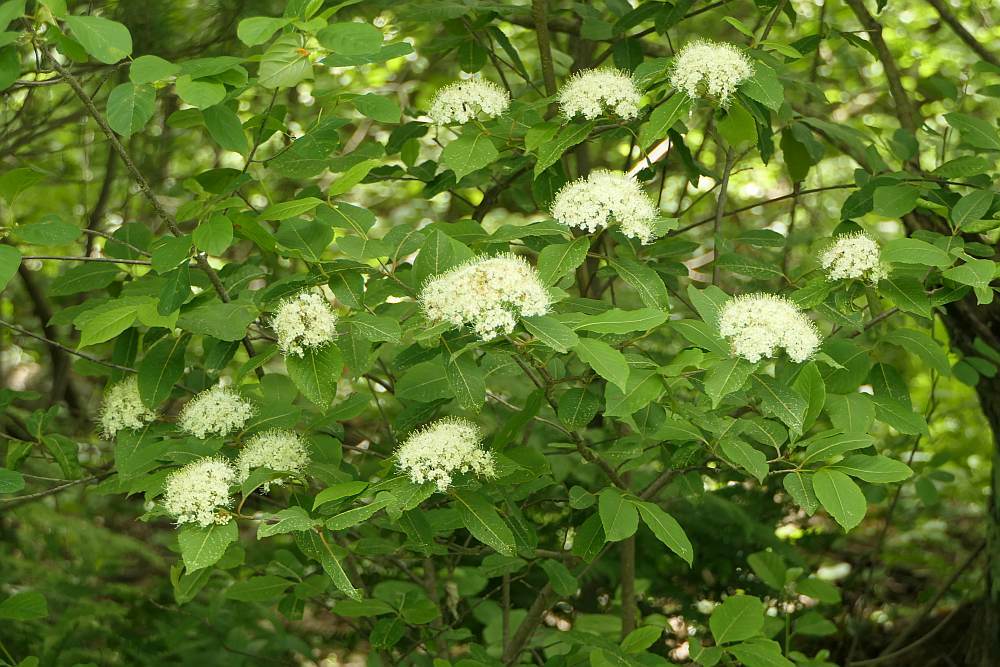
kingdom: Plantae
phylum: Tracheophyta
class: Magnoliopsida
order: Dipsacales
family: Viburnaceae
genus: Viburnum
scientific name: Viburnum cassinoides
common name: Swamp haw
